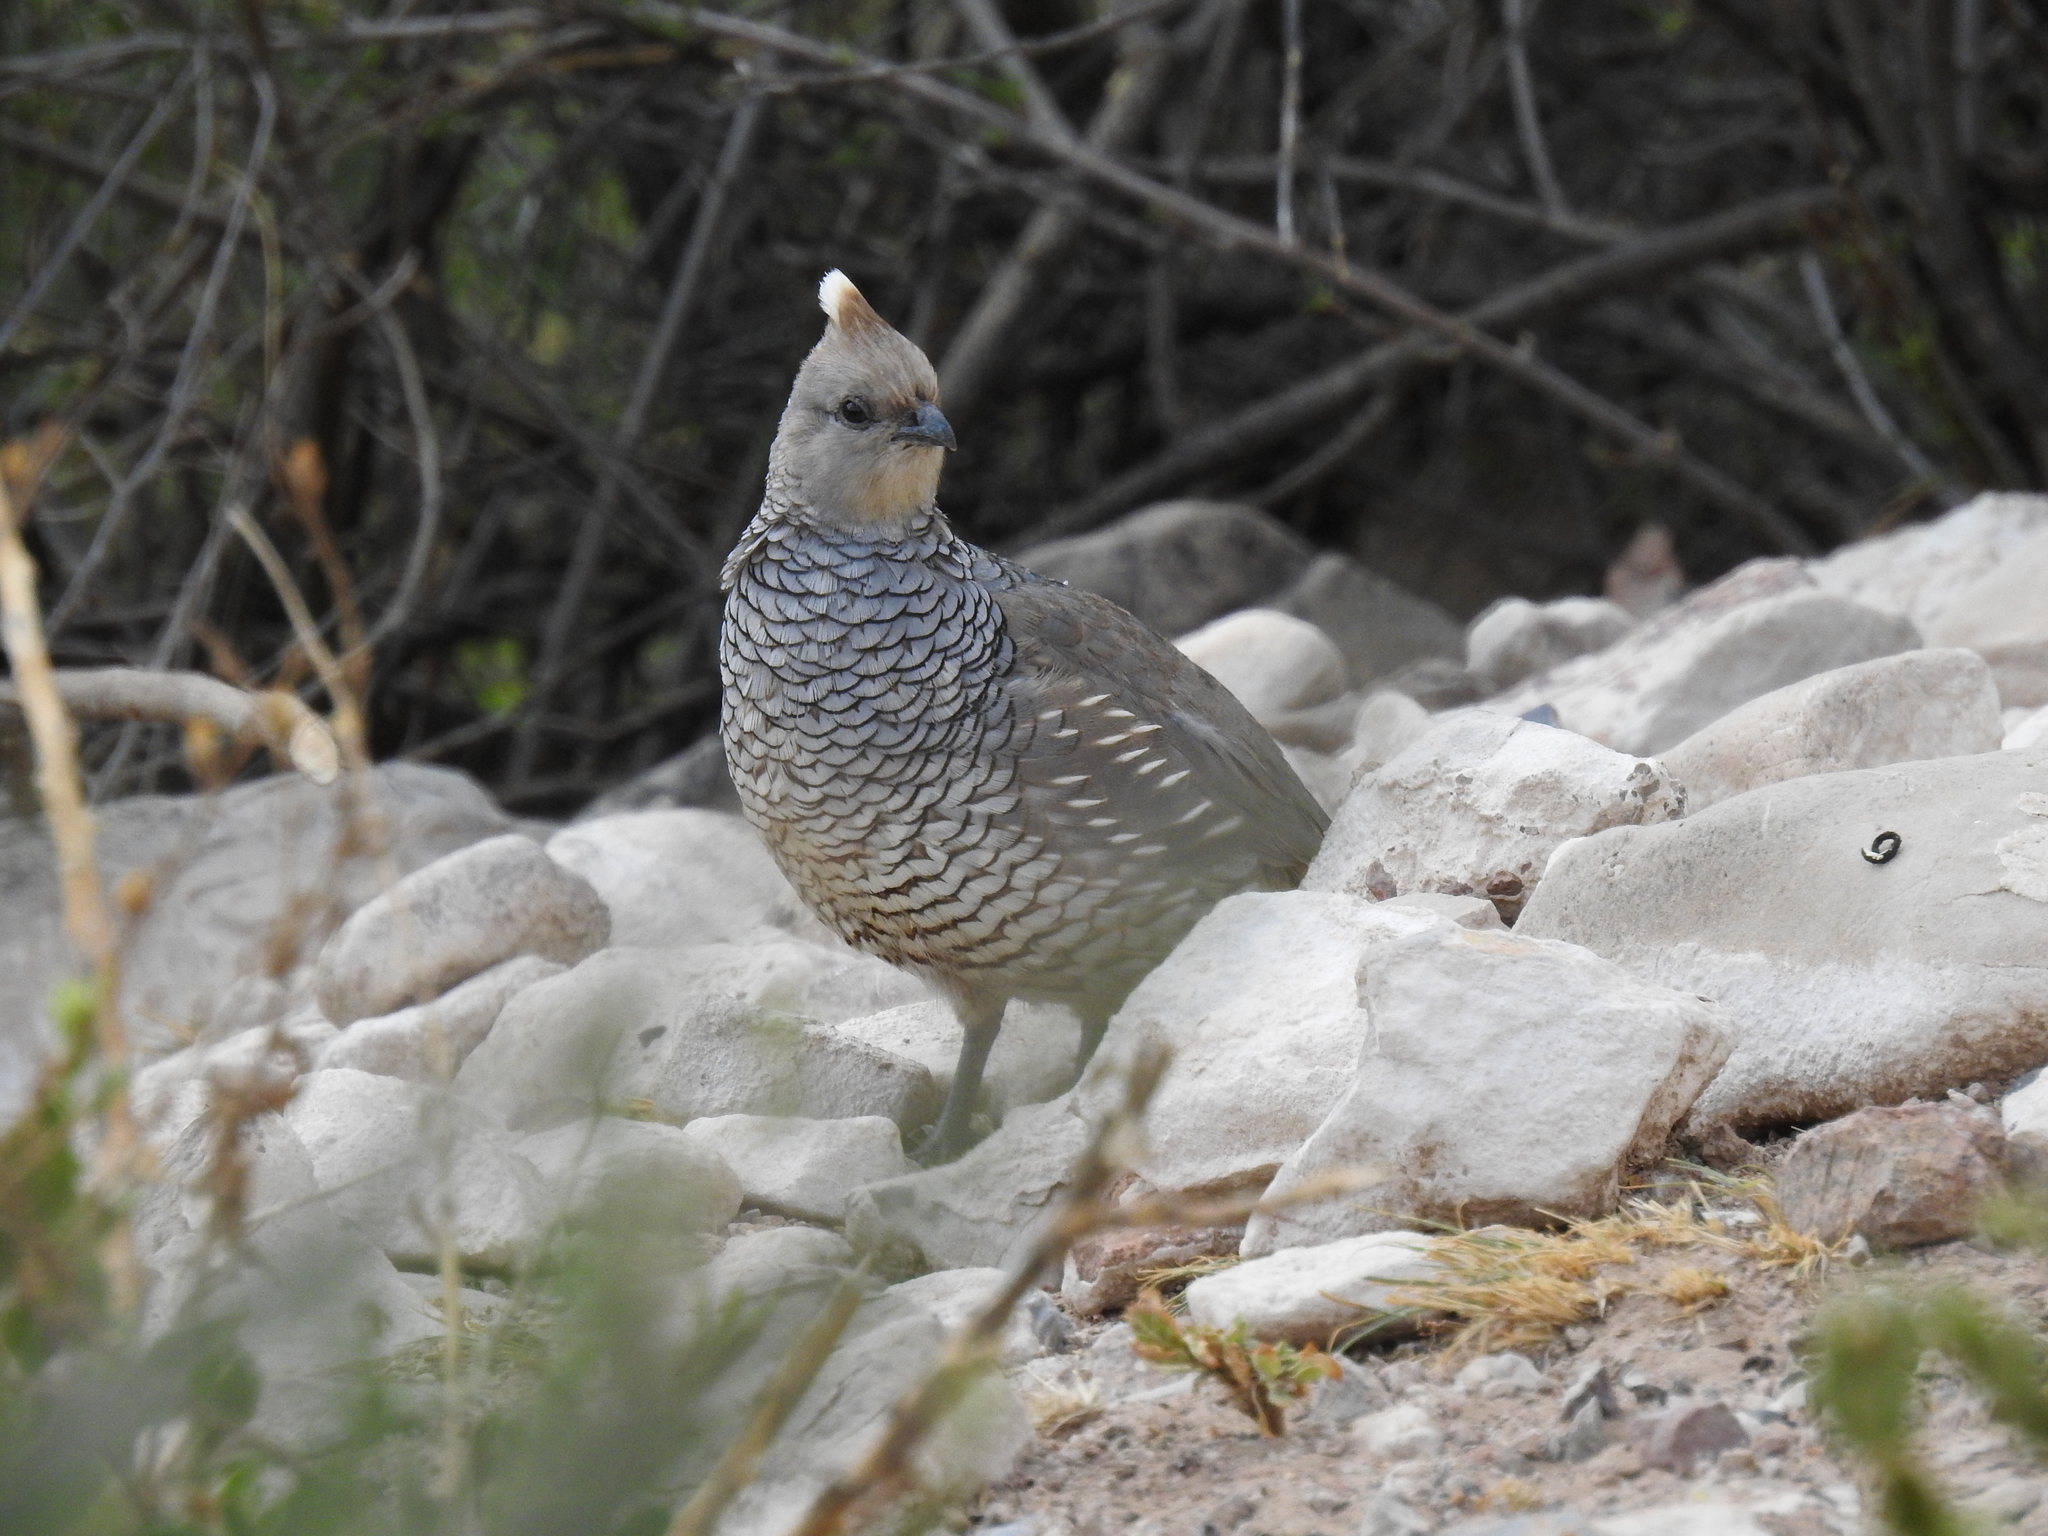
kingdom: Animalia
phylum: Chordata
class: Aves
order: Galliformes
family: Odontophoridae
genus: Callipepla
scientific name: Callipepla squamata
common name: Scaled quail
